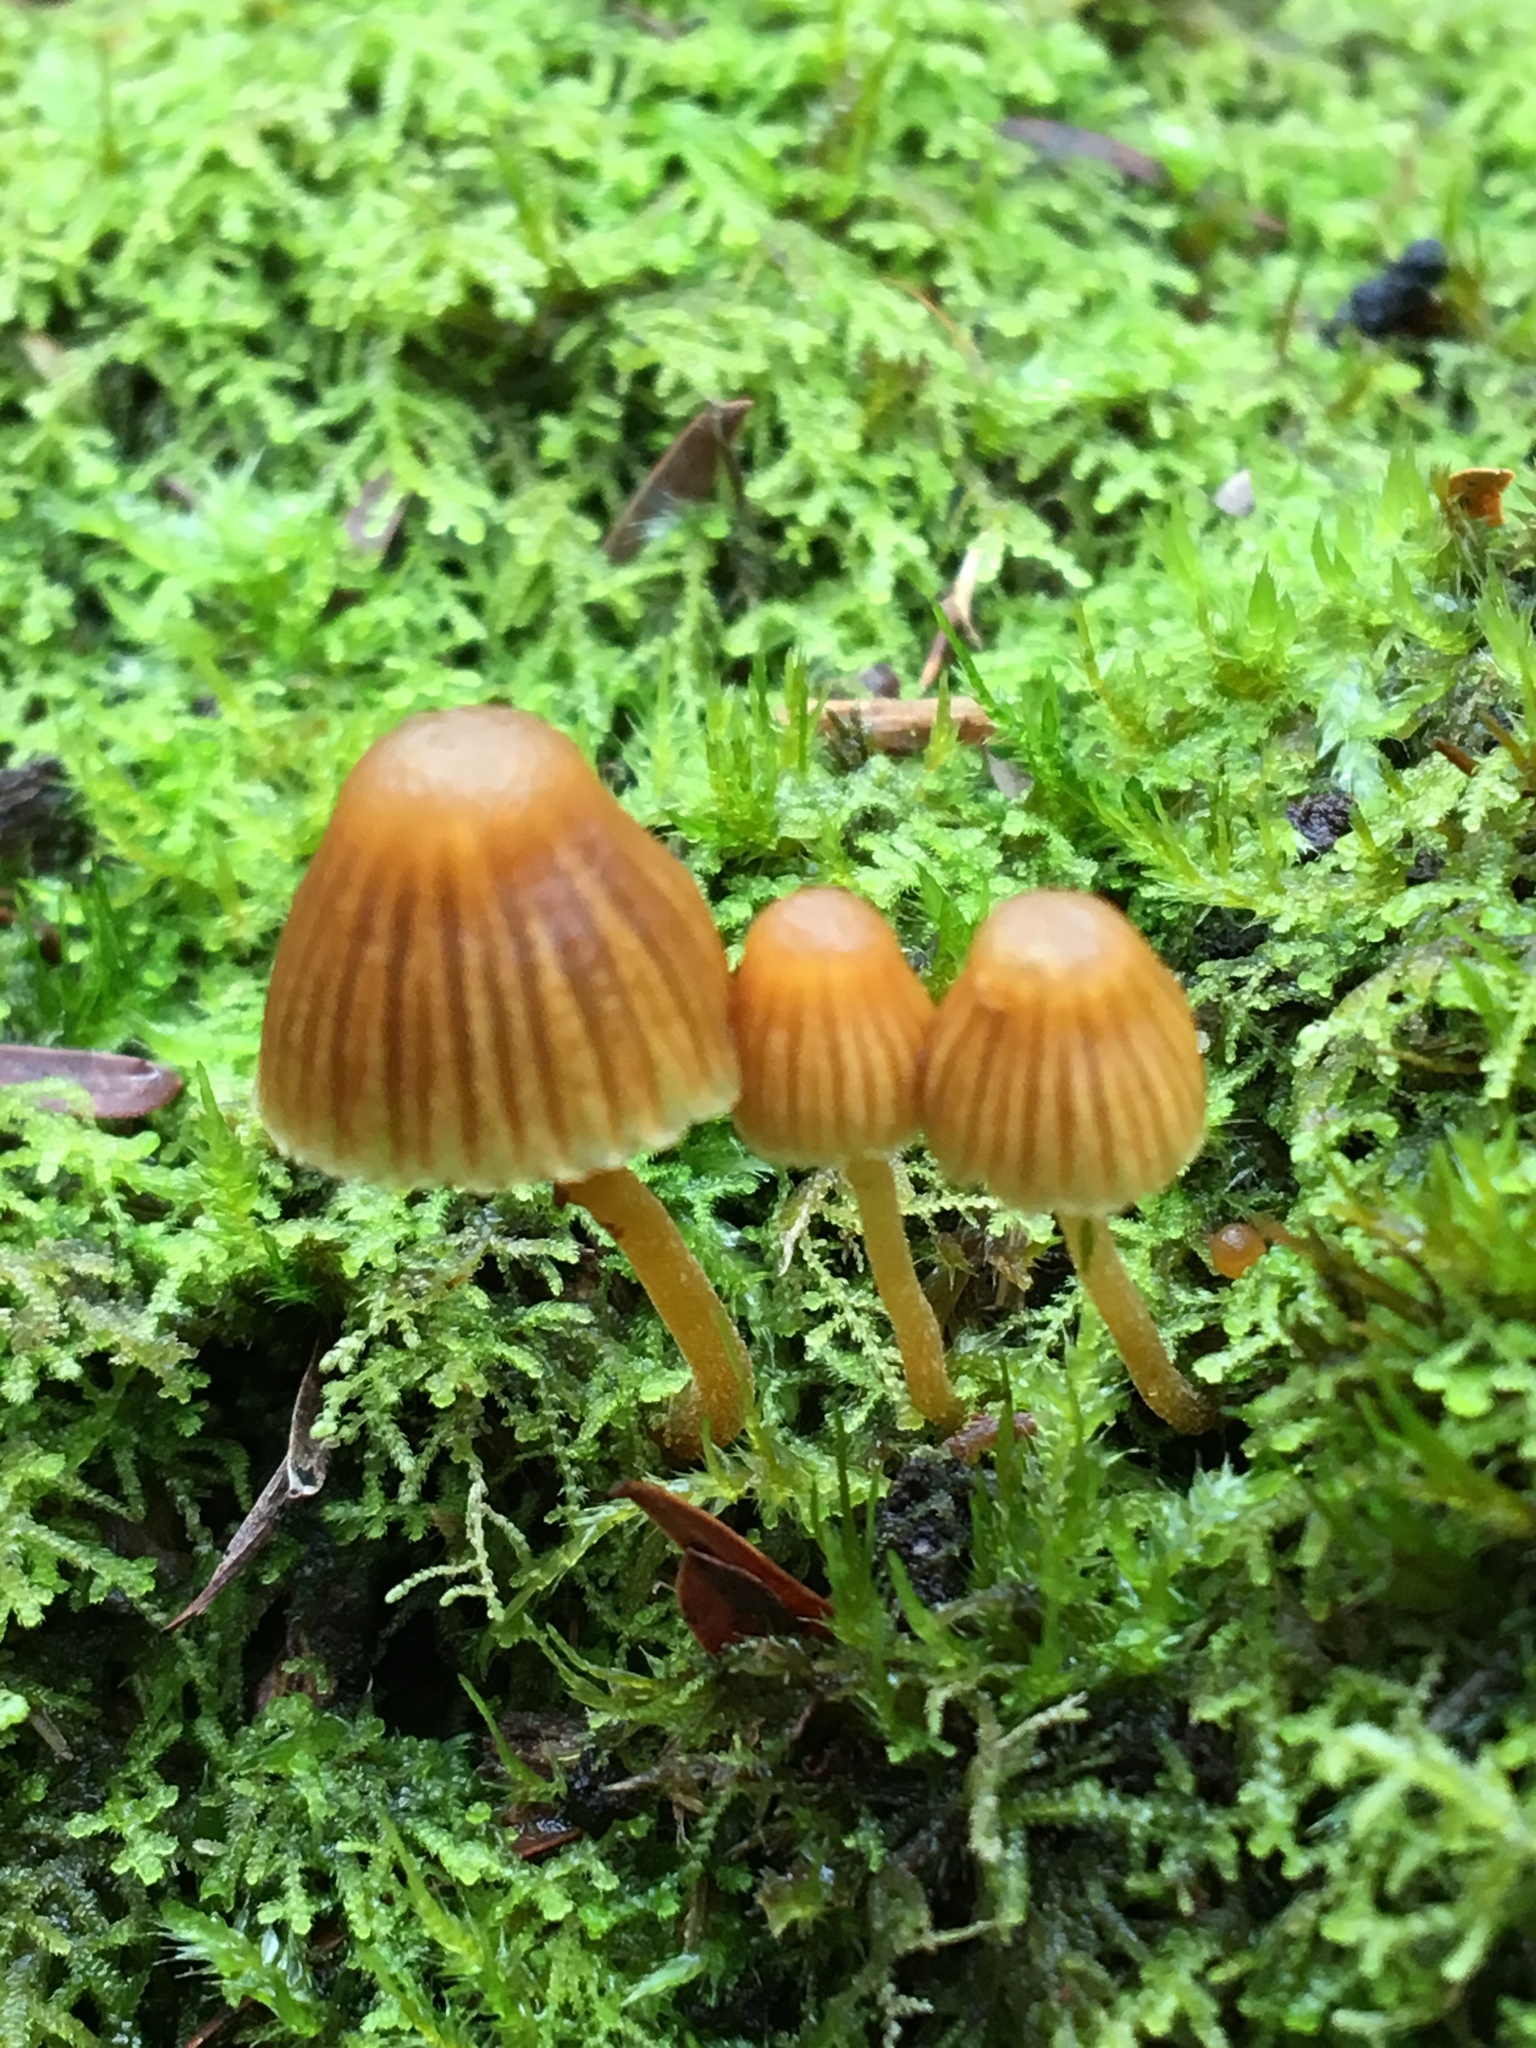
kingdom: Fungi
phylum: Basidiomycota
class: Agaricomycetes
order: Agaricales
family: Hymenogastraceae
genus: Galerina
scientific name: Galerina hypnorum
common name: Moss bell
